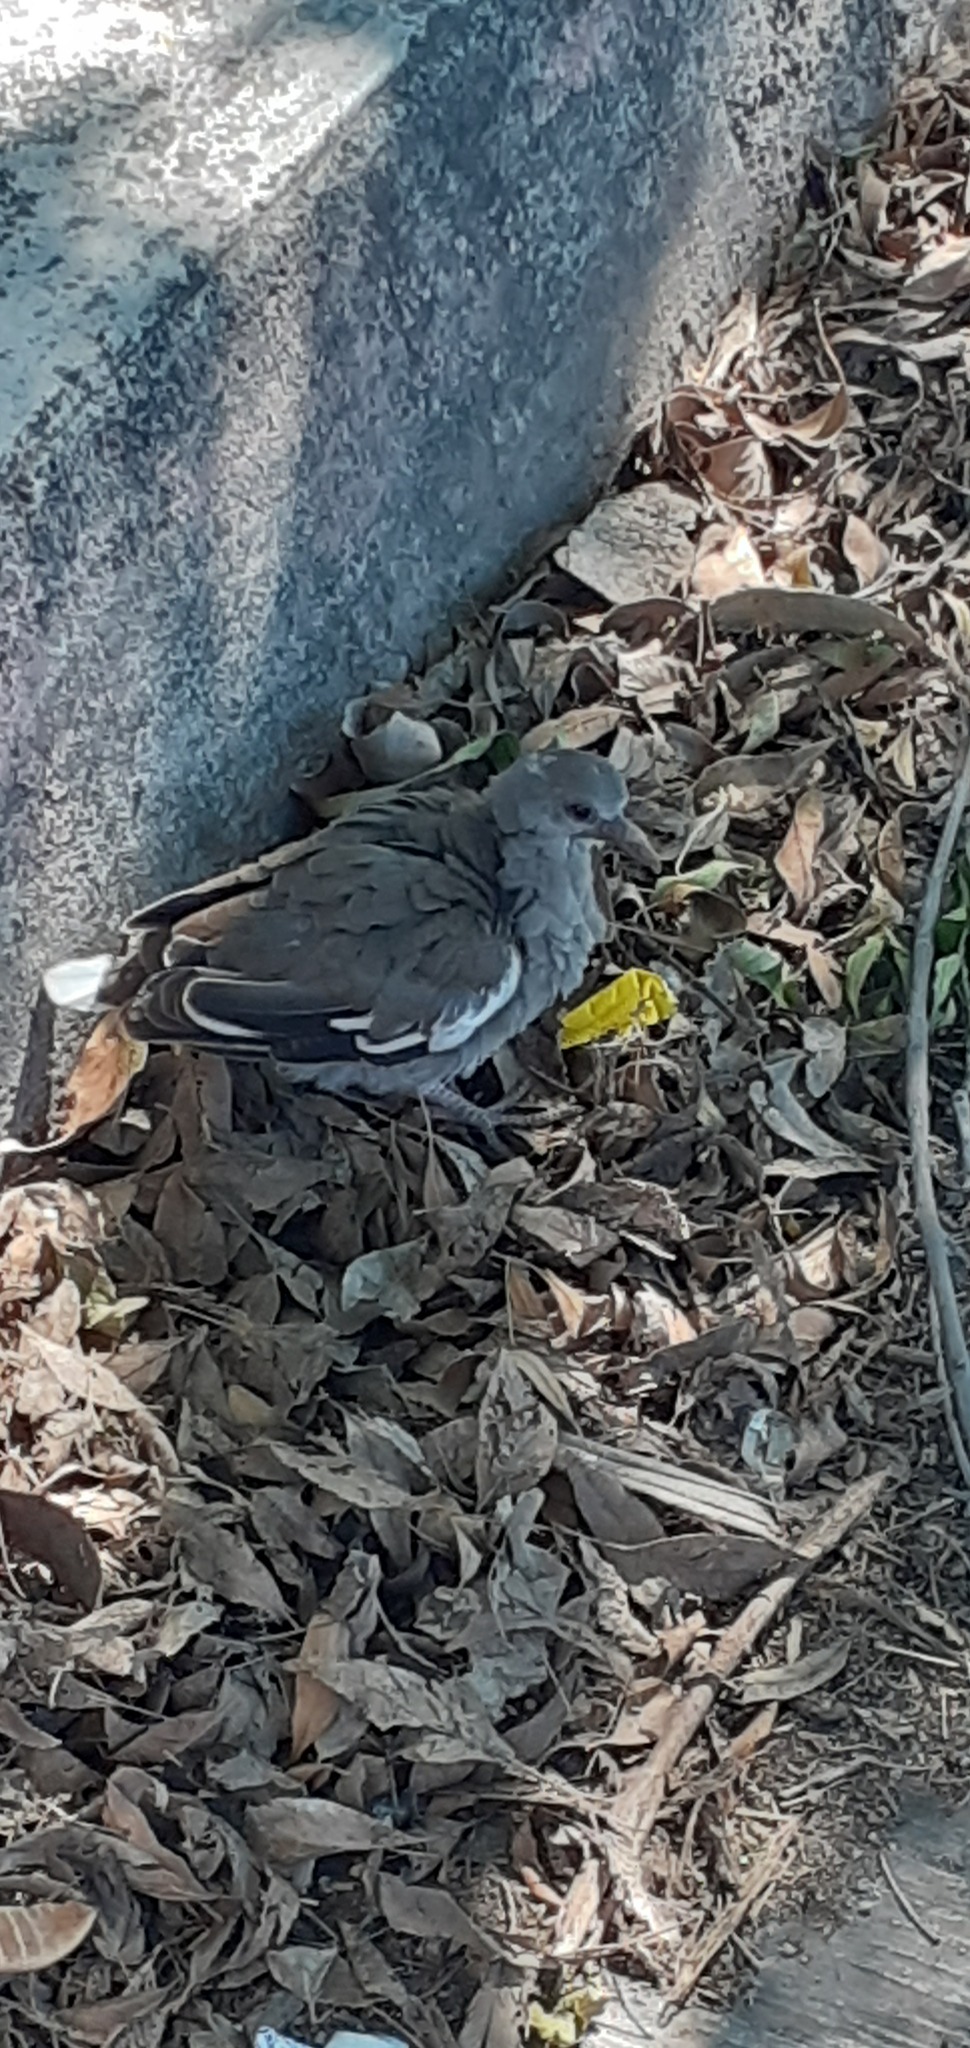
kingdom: Animalia
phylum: Chordata
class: Aves
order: Columbiformes
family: Columbidae
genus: Zenaida
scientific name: Zenaida asiatica
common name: White-winged dove
